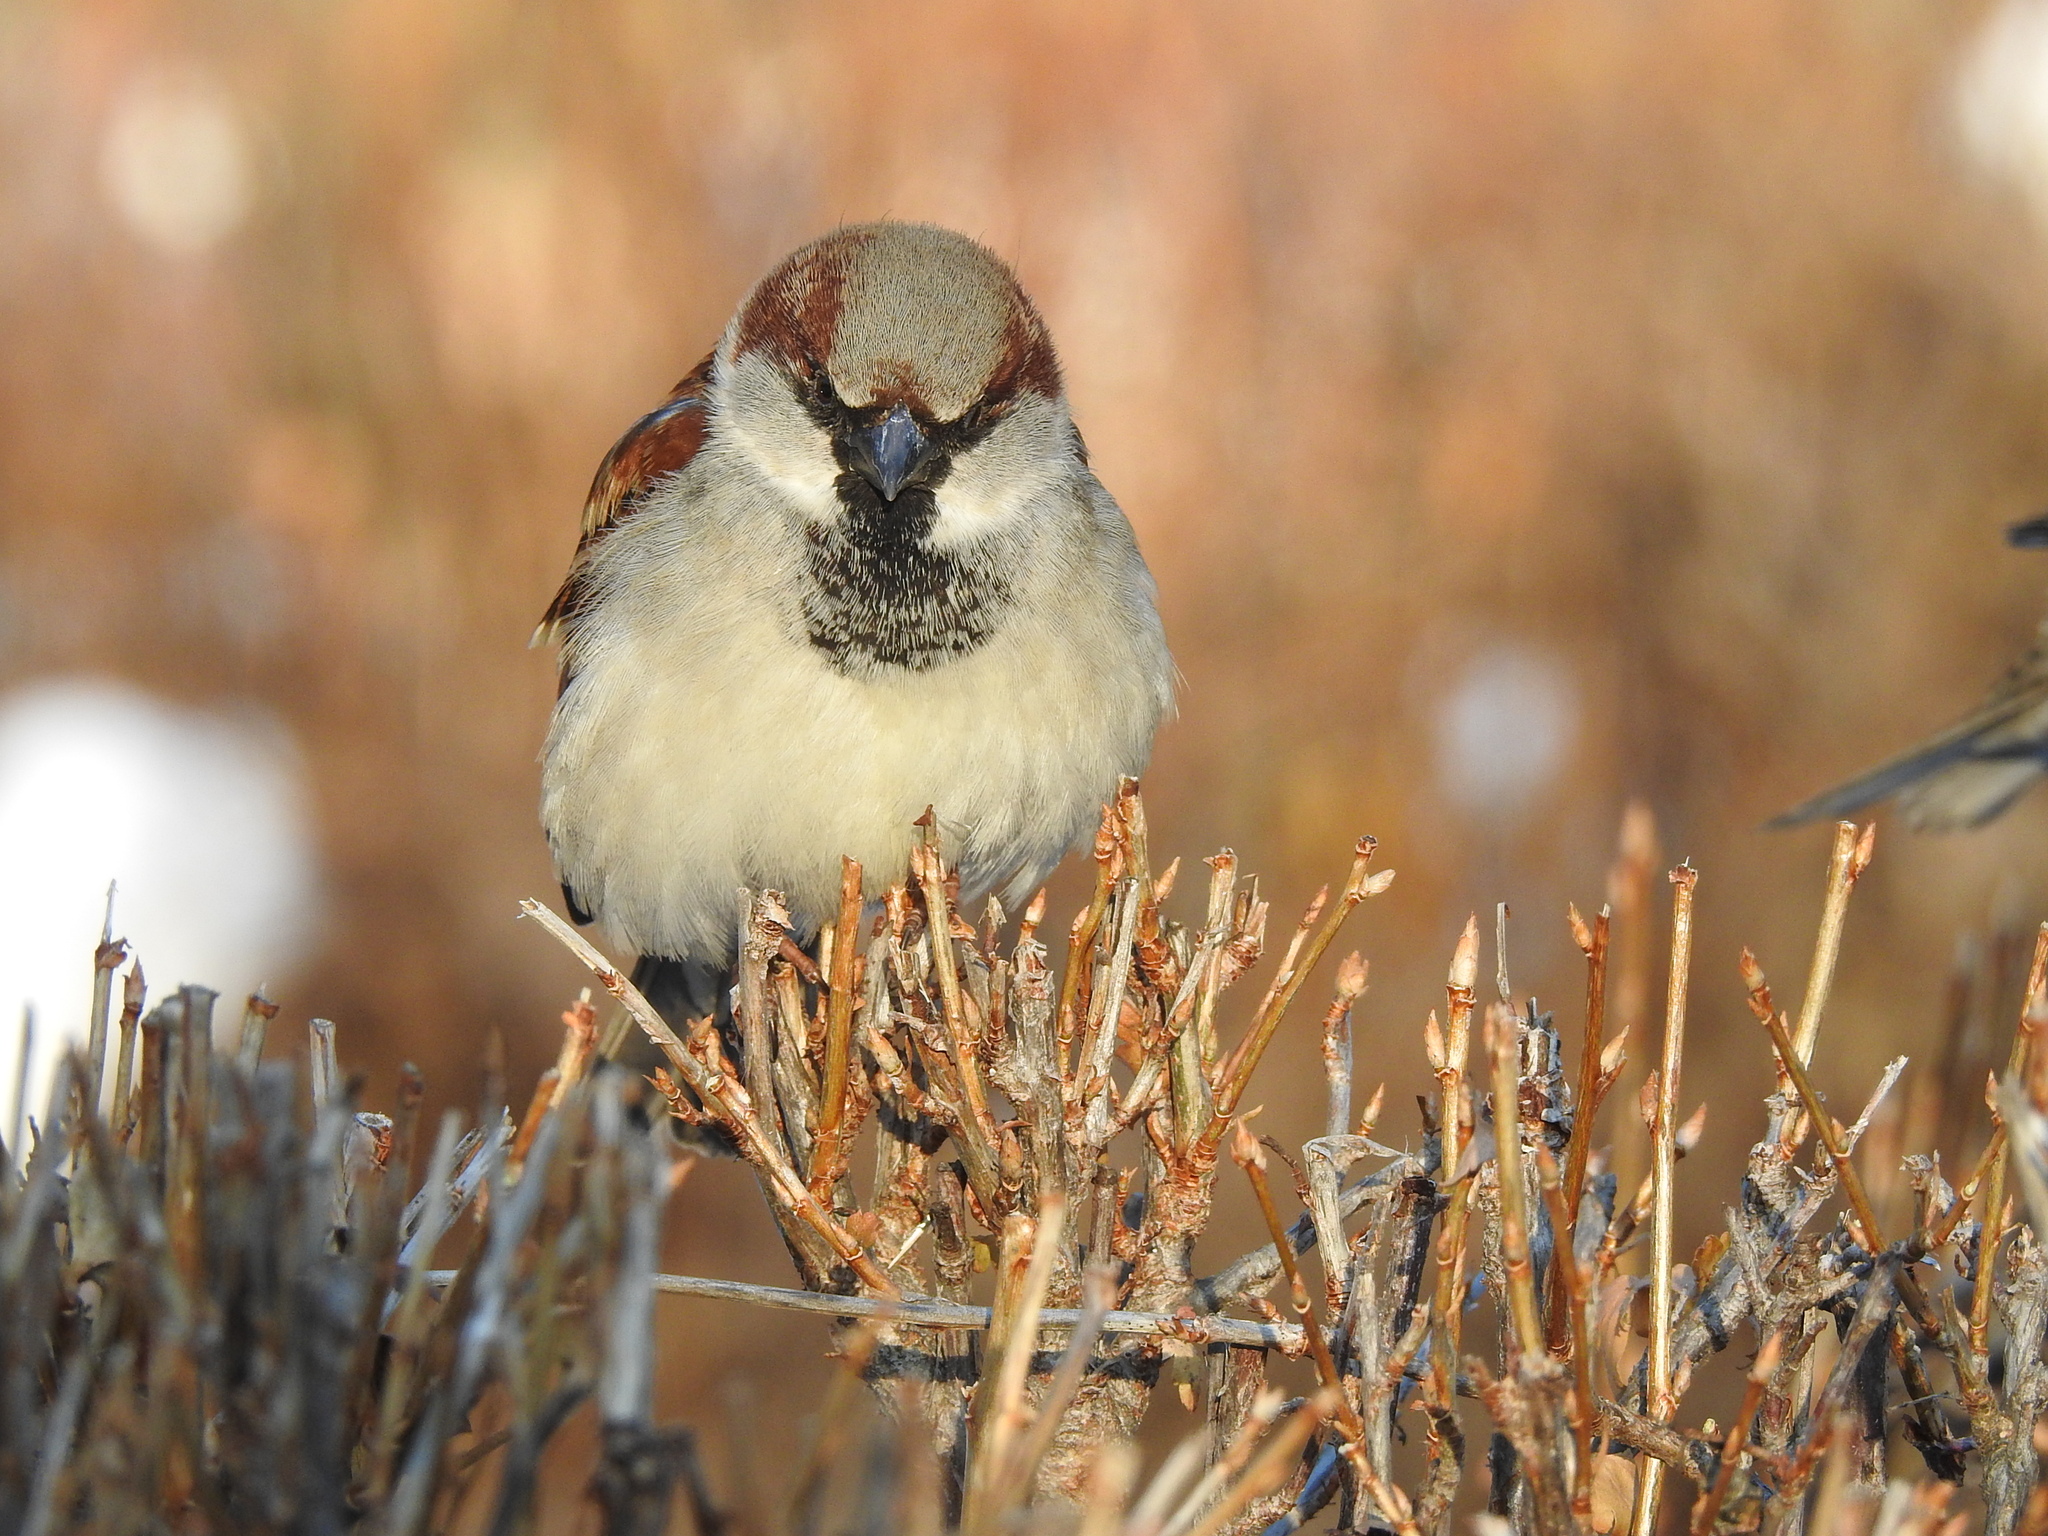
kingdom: Animalia
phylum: Chordata
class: Aves
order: Passeriformes
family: Passeridae
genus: Passer
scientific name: Passer domesticus
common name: House sparrow
